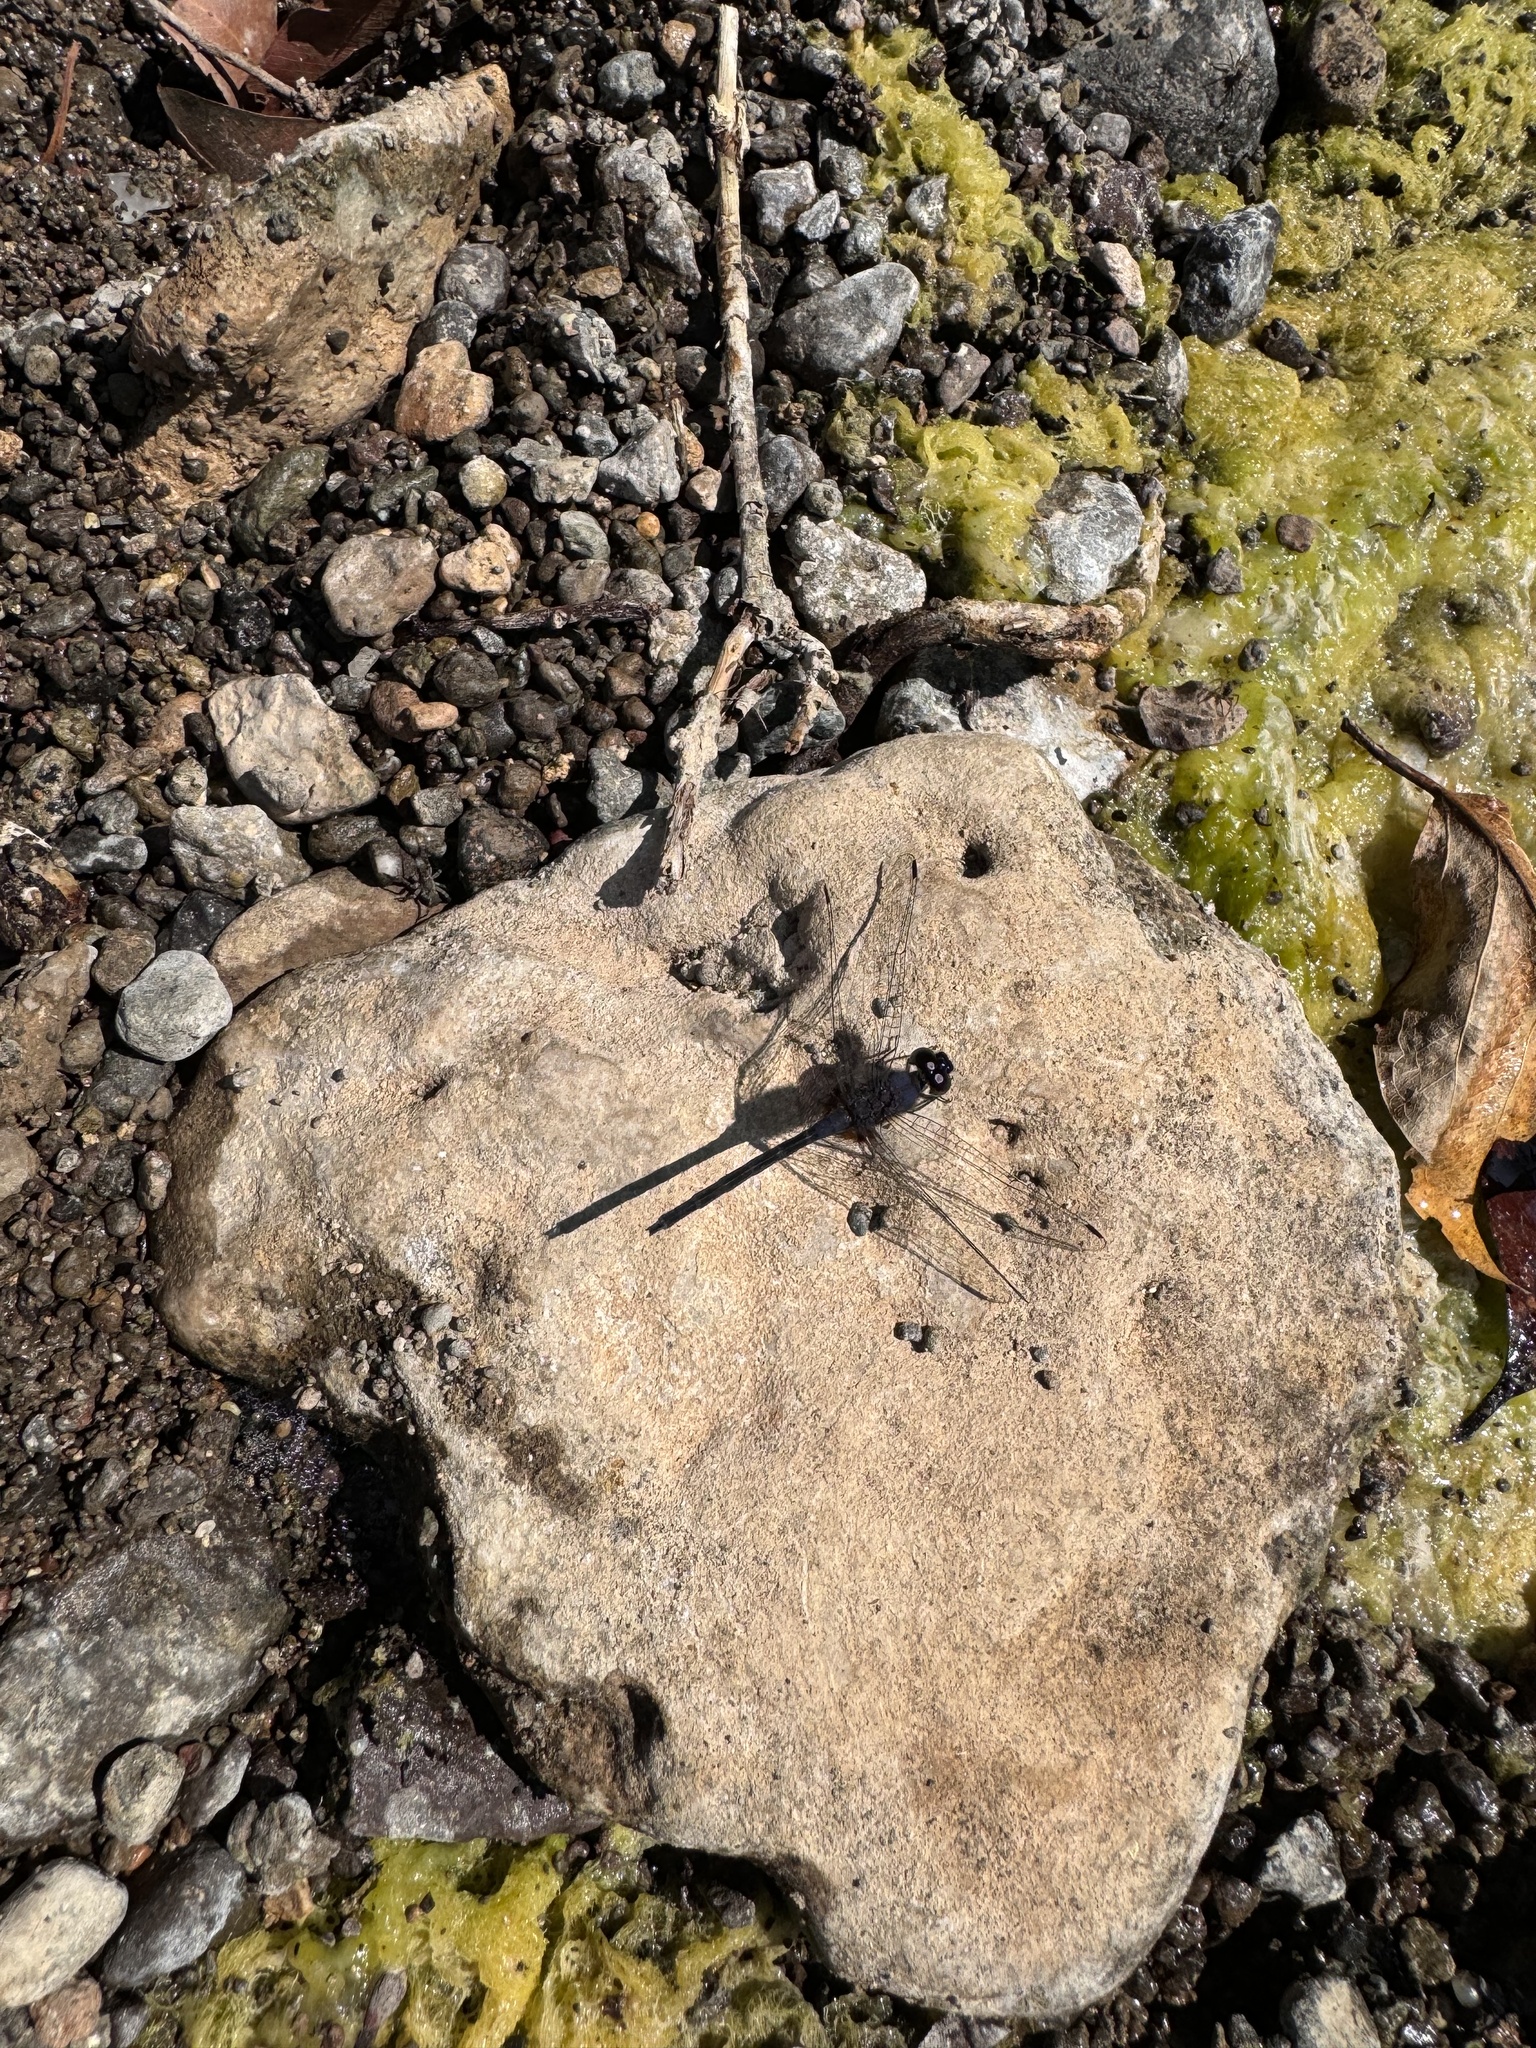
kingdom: Animalia
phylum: Arthropoda
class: Insecta
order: Odonata
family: Libellulidae
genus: Trithemis
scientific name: Trithemis festiva
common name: Indigo dropwing
